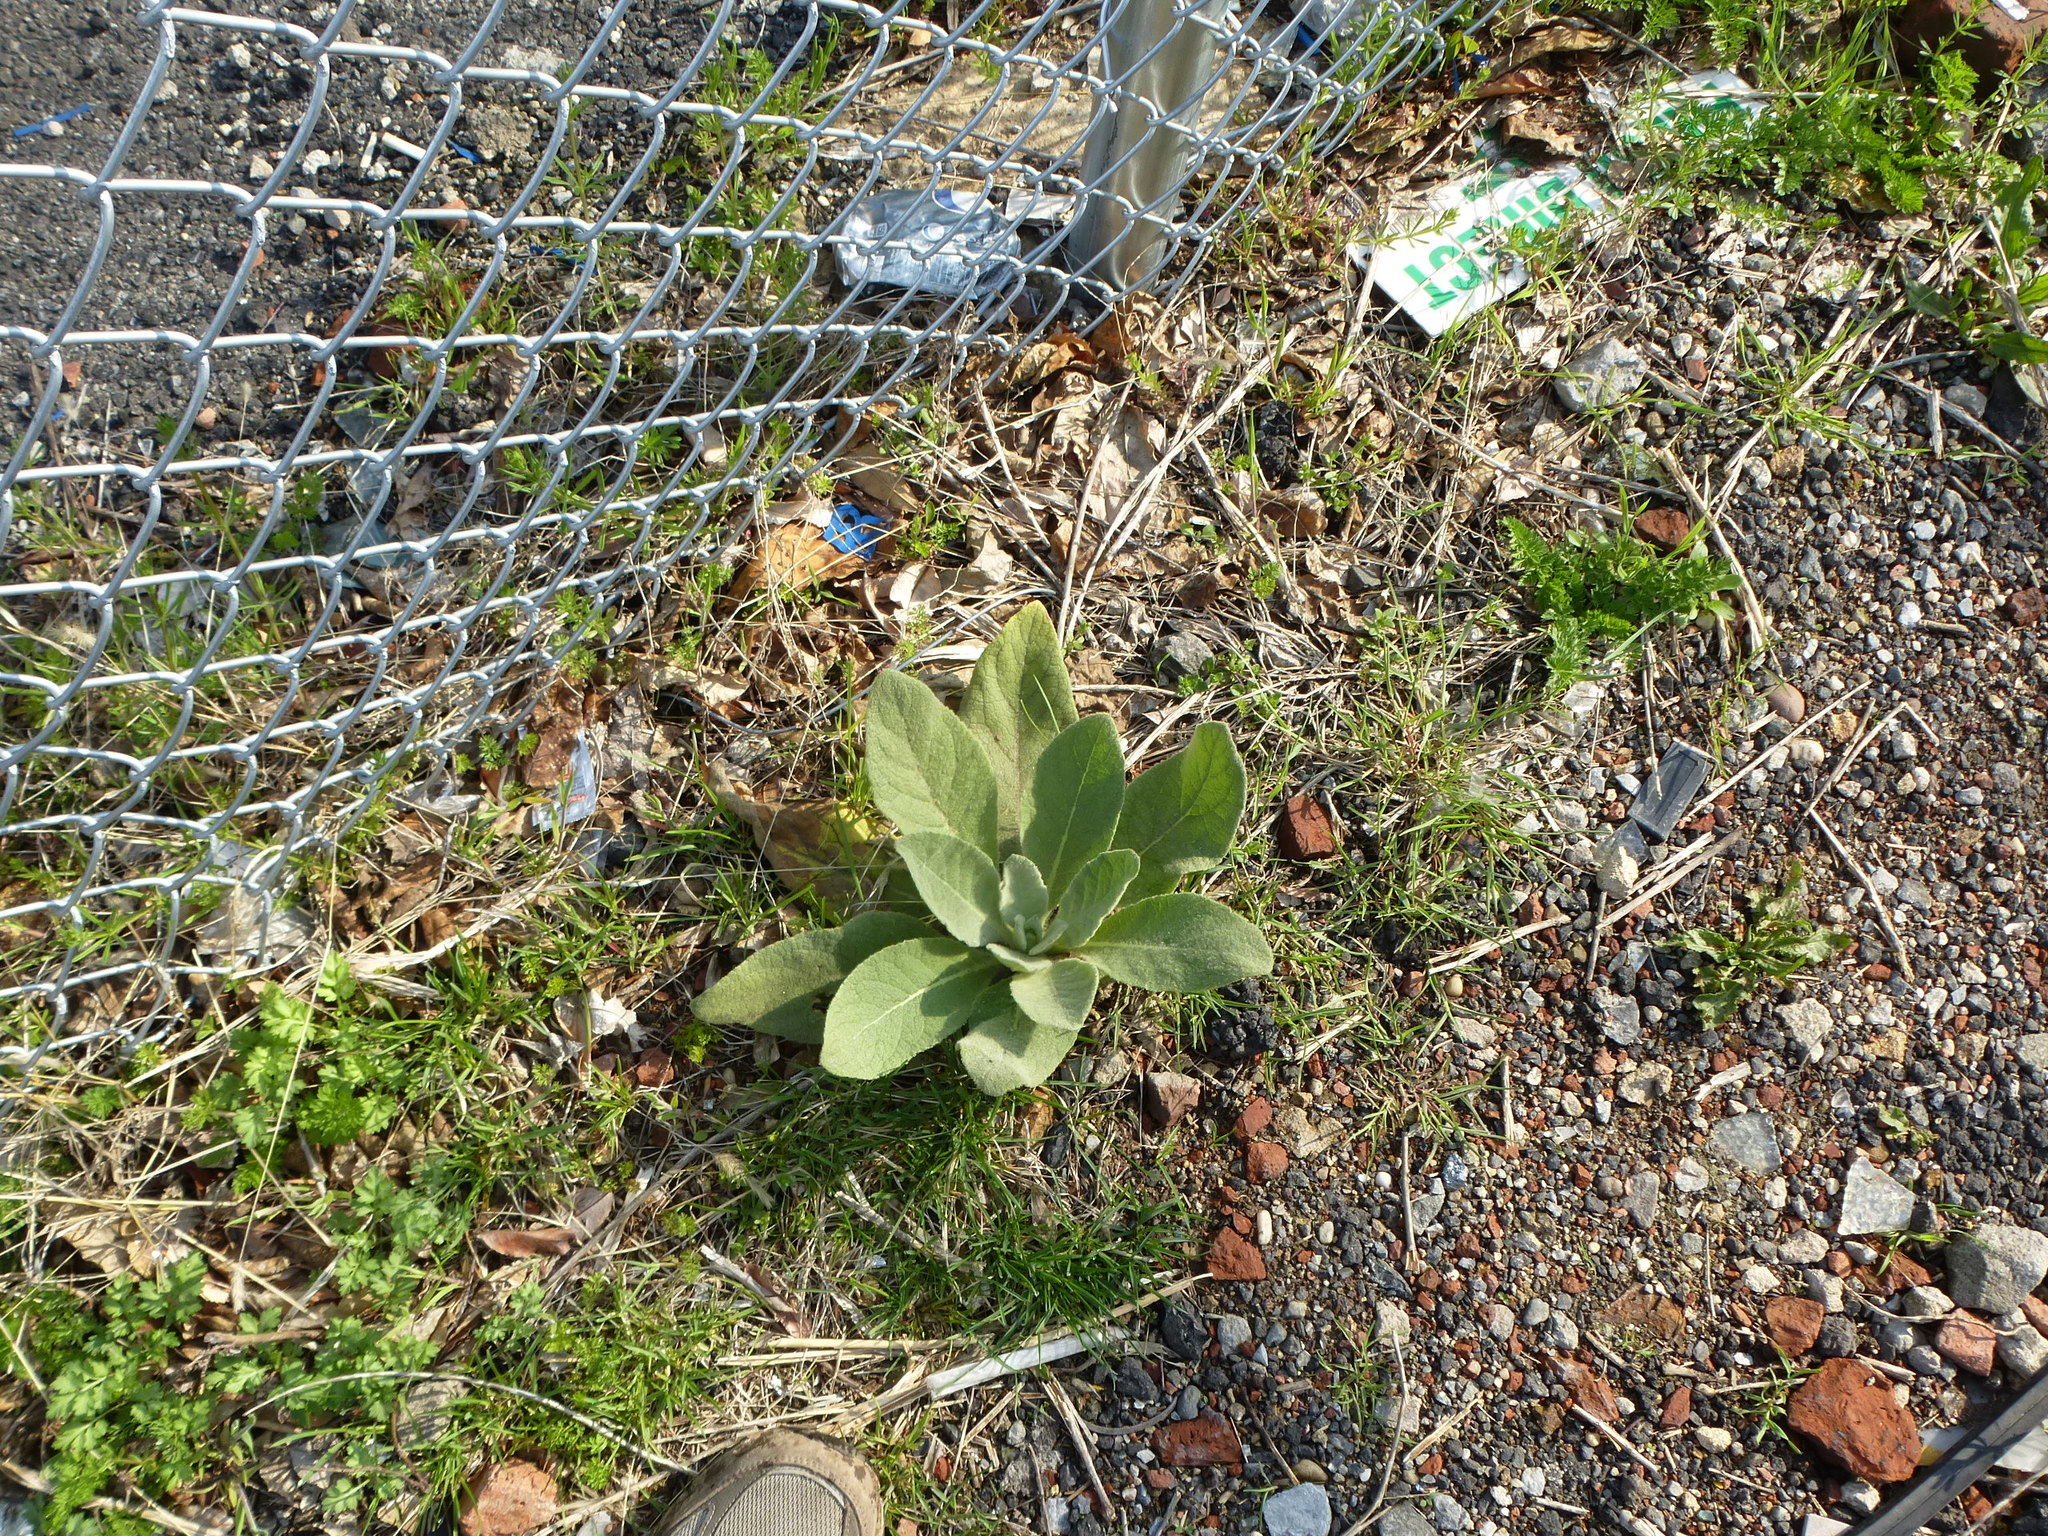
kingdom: Plantae
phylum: Tracheophyta
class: Magnoliopsida
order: Lamiales
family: Scrophulariaceae
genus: Verbascum
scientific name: Verbascum thapsus
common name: Common mullein
